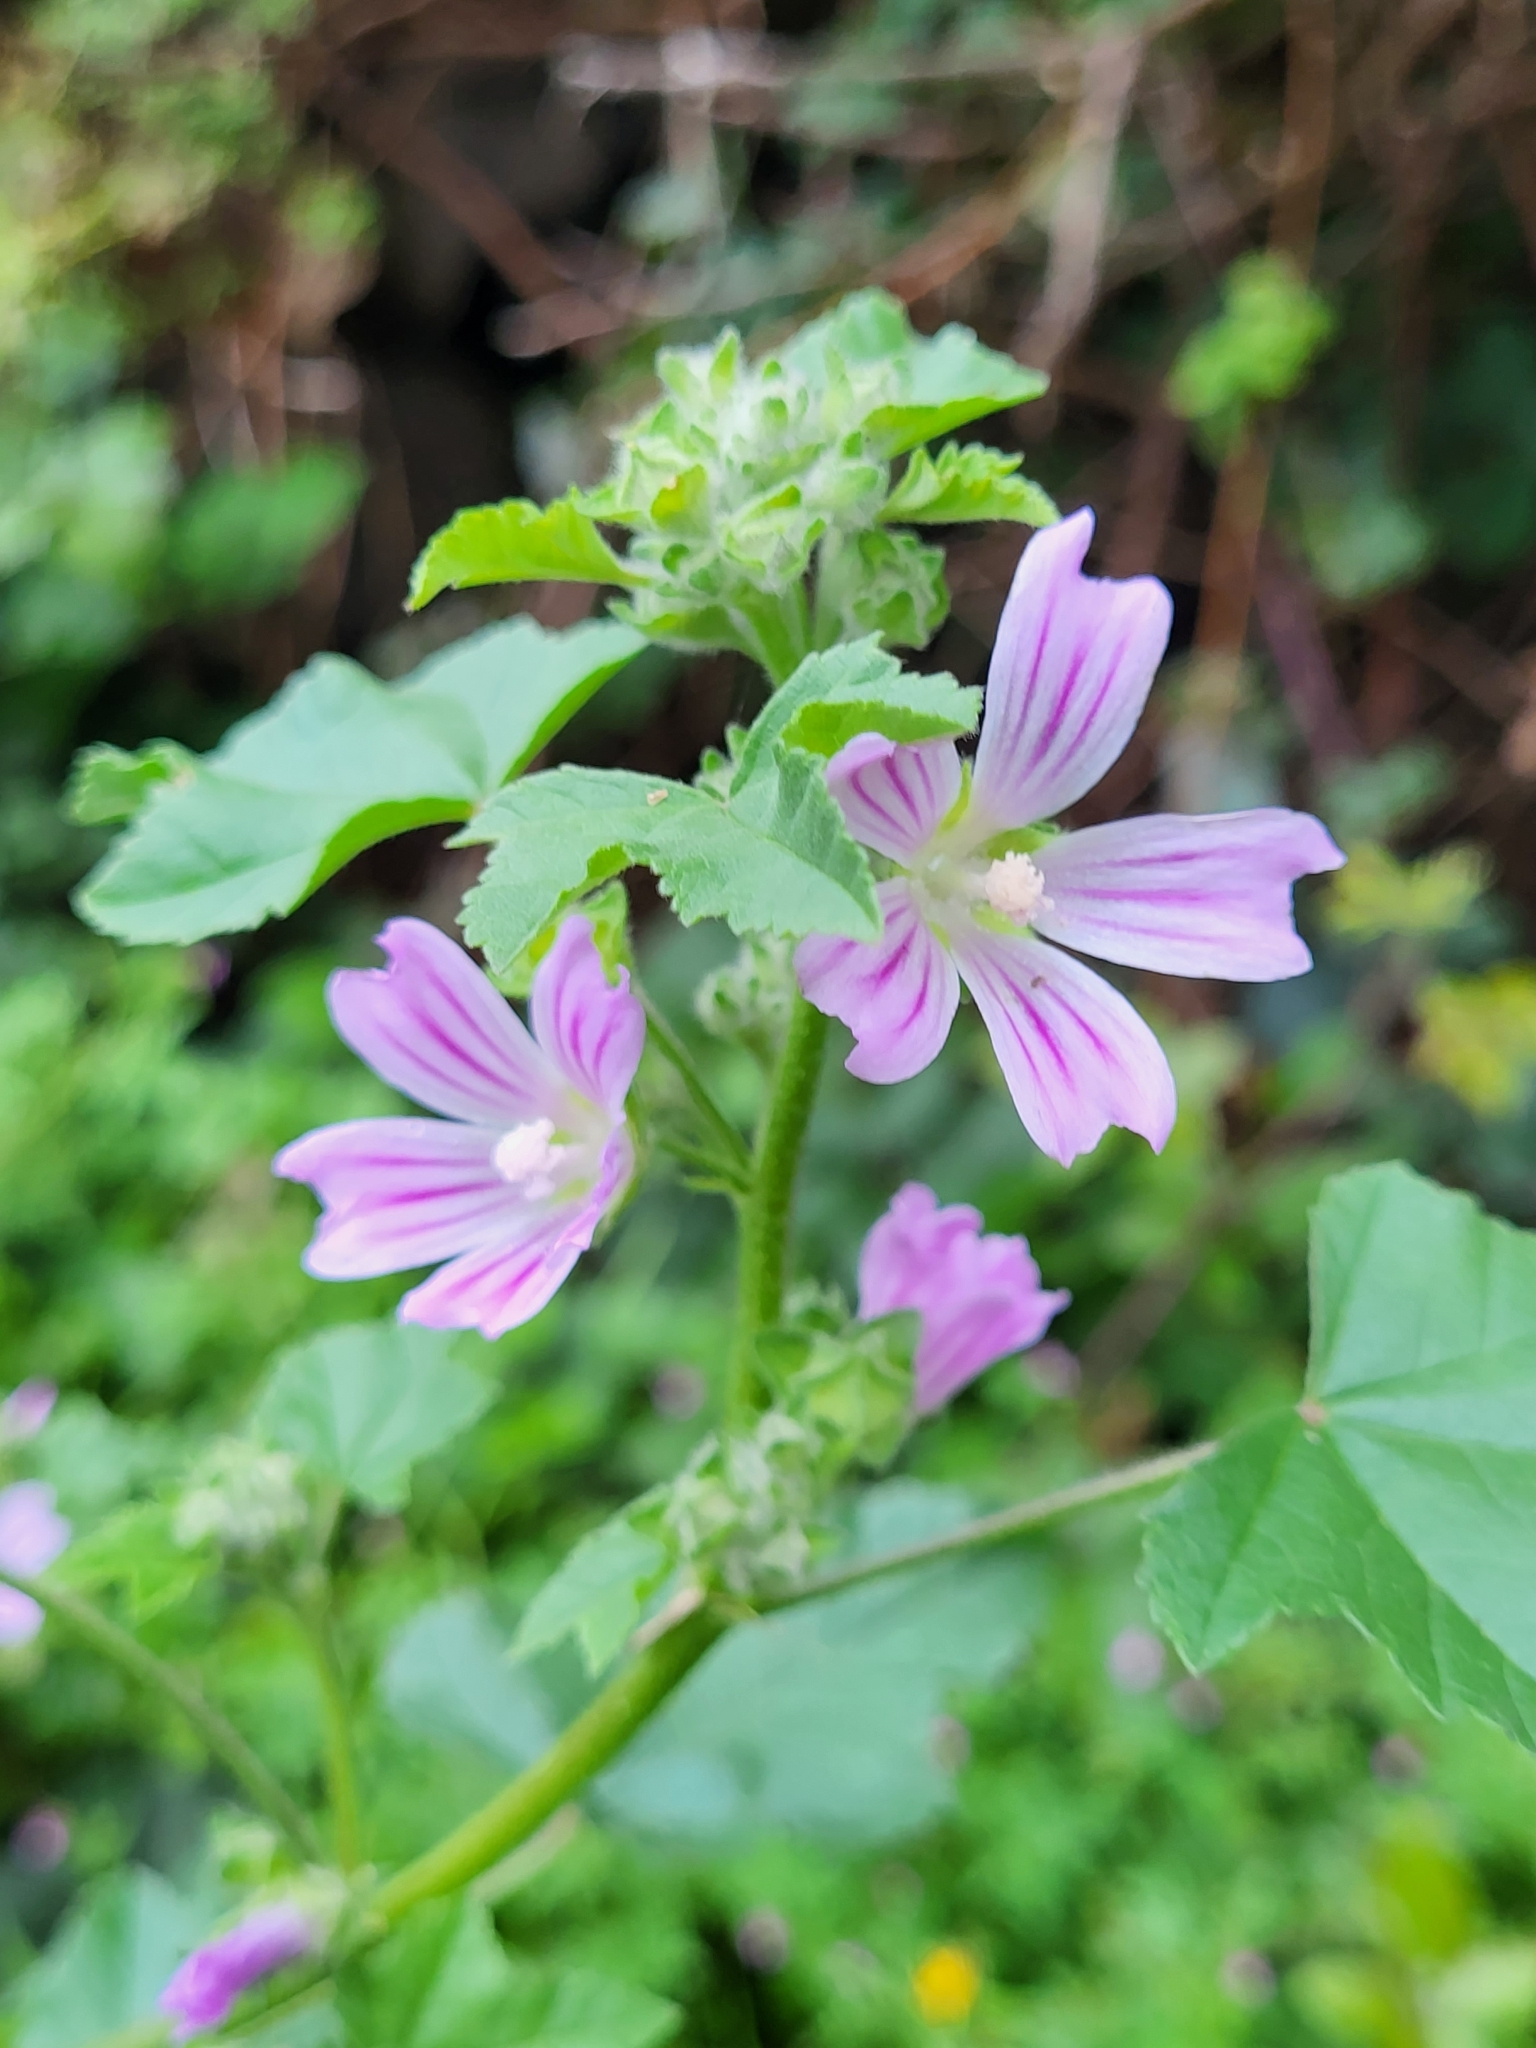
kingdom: Plantae
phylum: Tracheophyta
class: Magnoliopsida
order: Malvales
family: Malvaceae
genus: Malva
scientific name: Malva multiflora
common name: Cheeseweed
